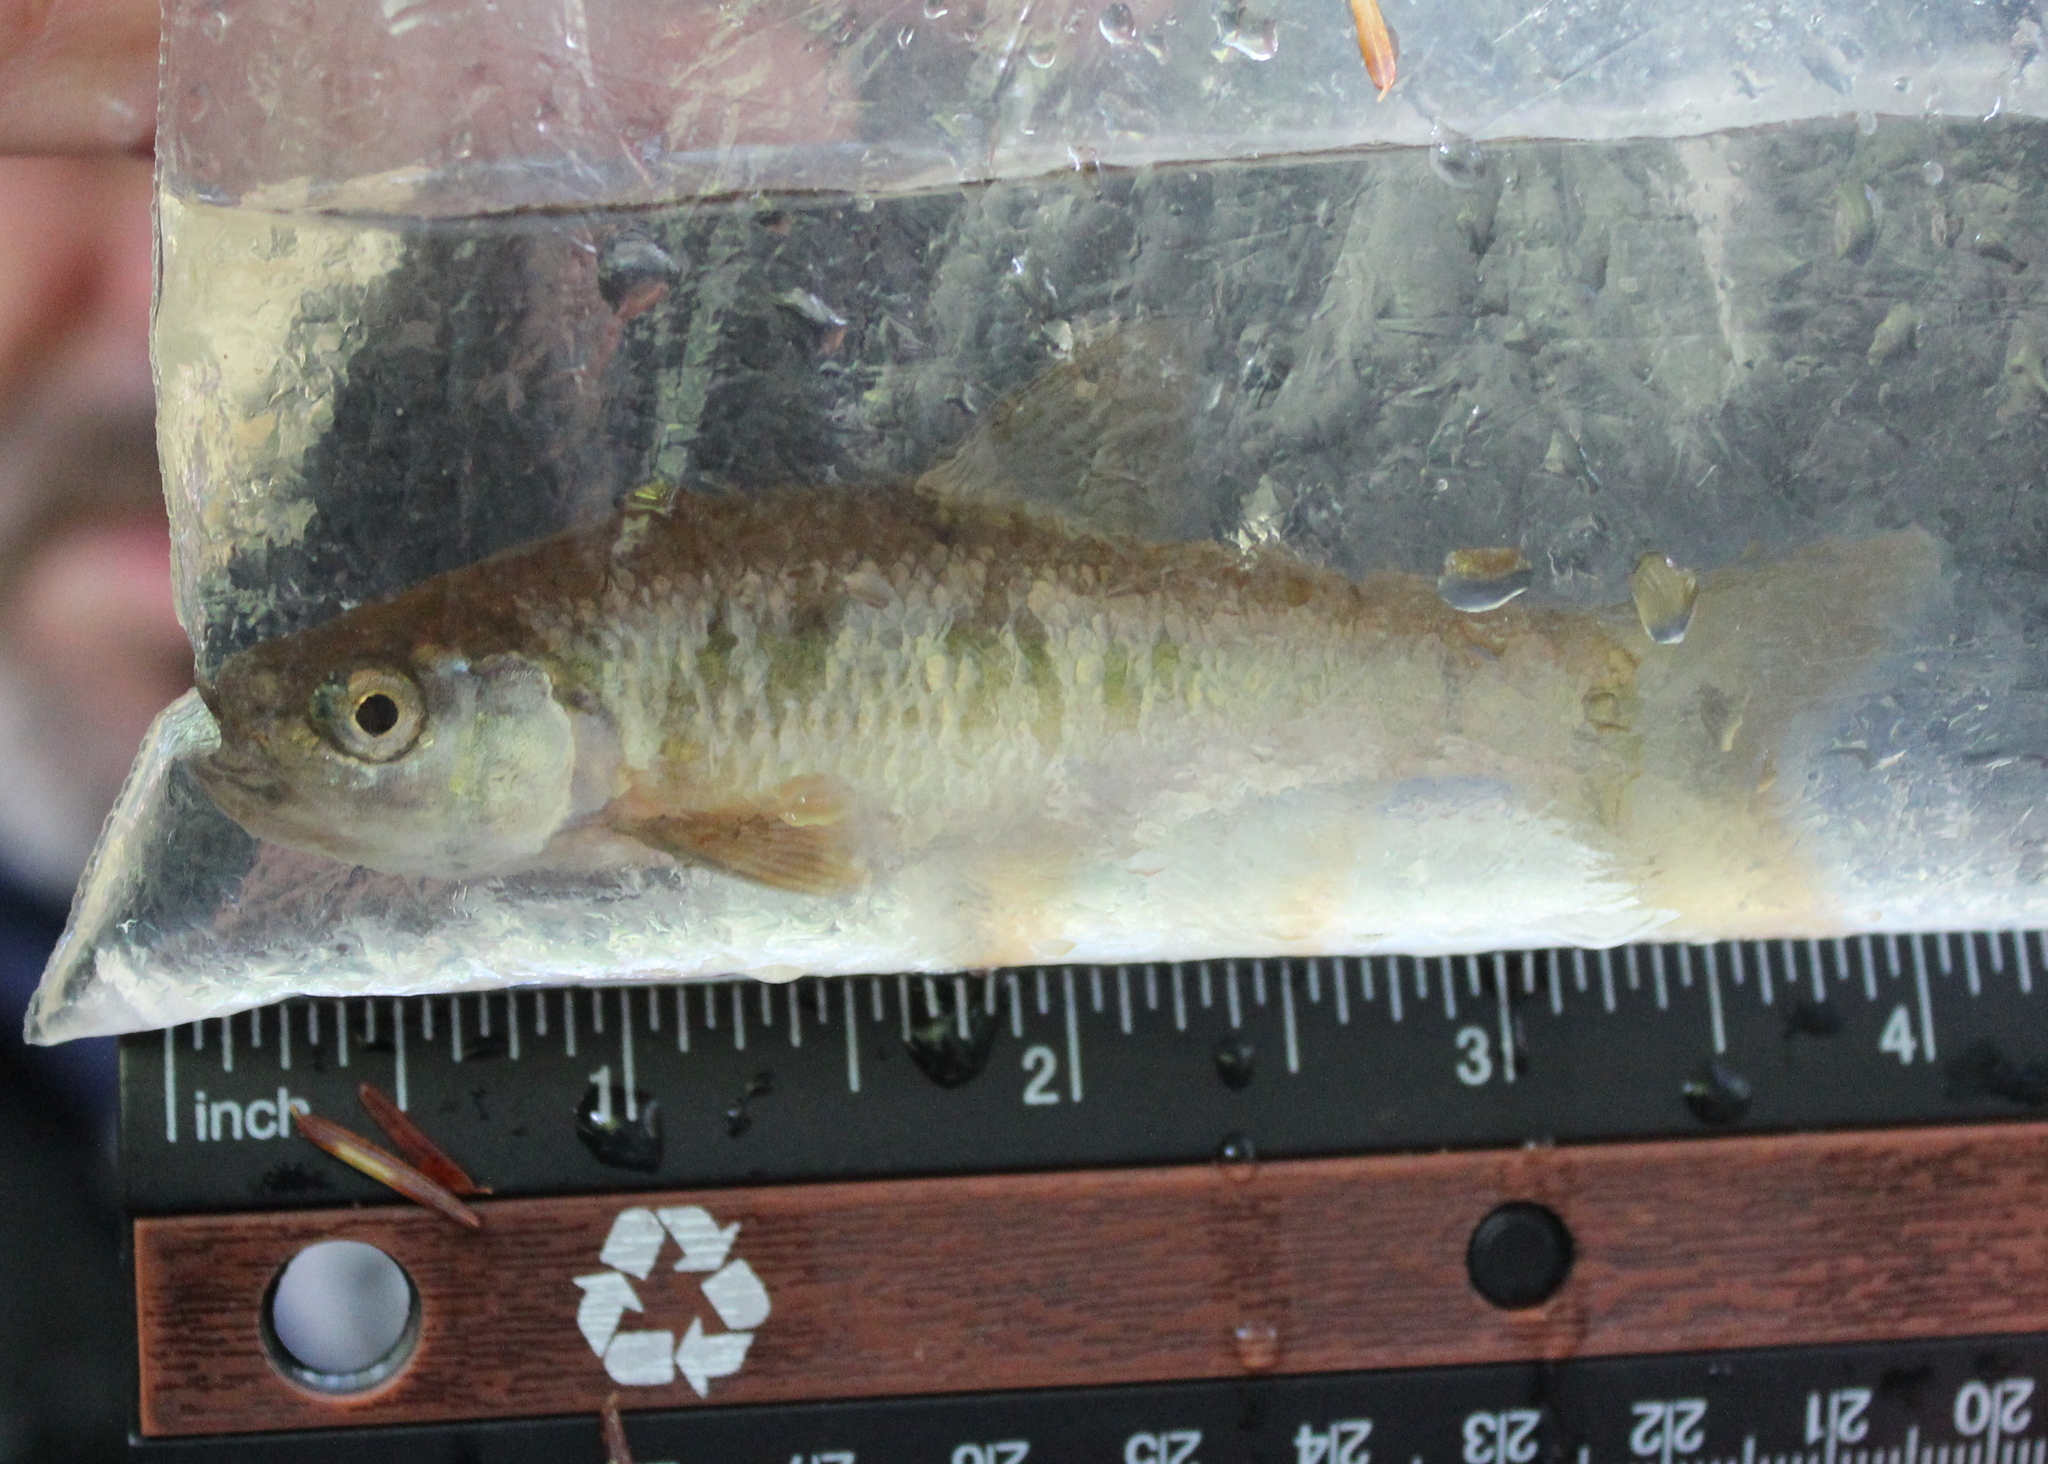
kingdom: Animalia
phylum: Chordata
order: Cypriniformes
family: Cyprinidae
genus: Luxilus
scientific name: Luxilus cornutus
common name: Common shiner
